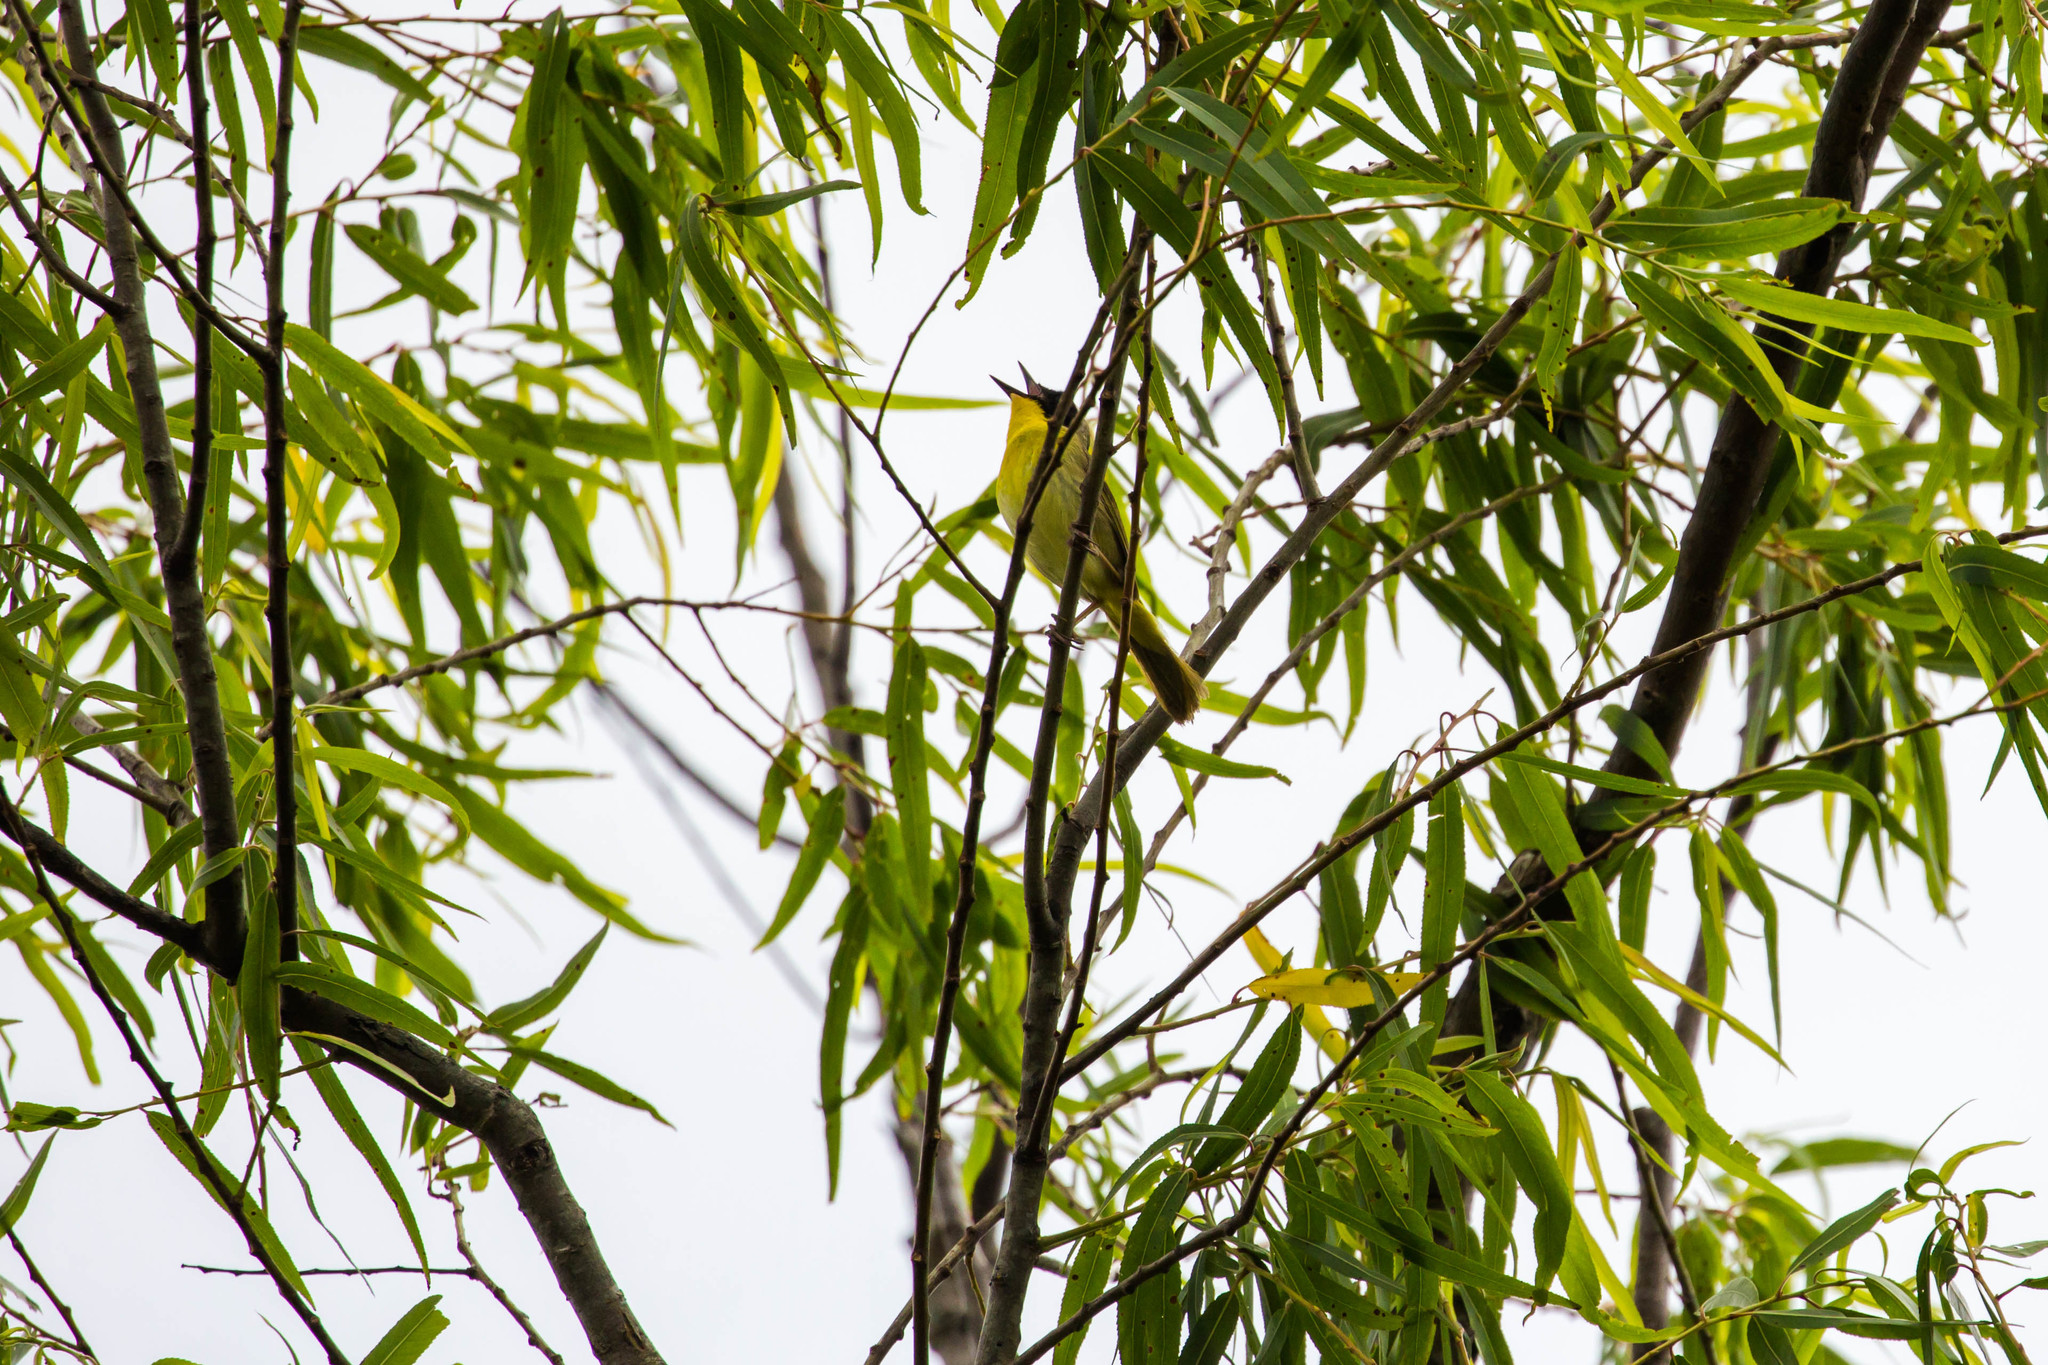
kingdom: Animalia
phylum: Chordata
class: Aves
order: Passeriformes
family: Parulidae
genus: Geothlypis
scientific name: Geothlypis trichas
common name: Common yellowthroat
